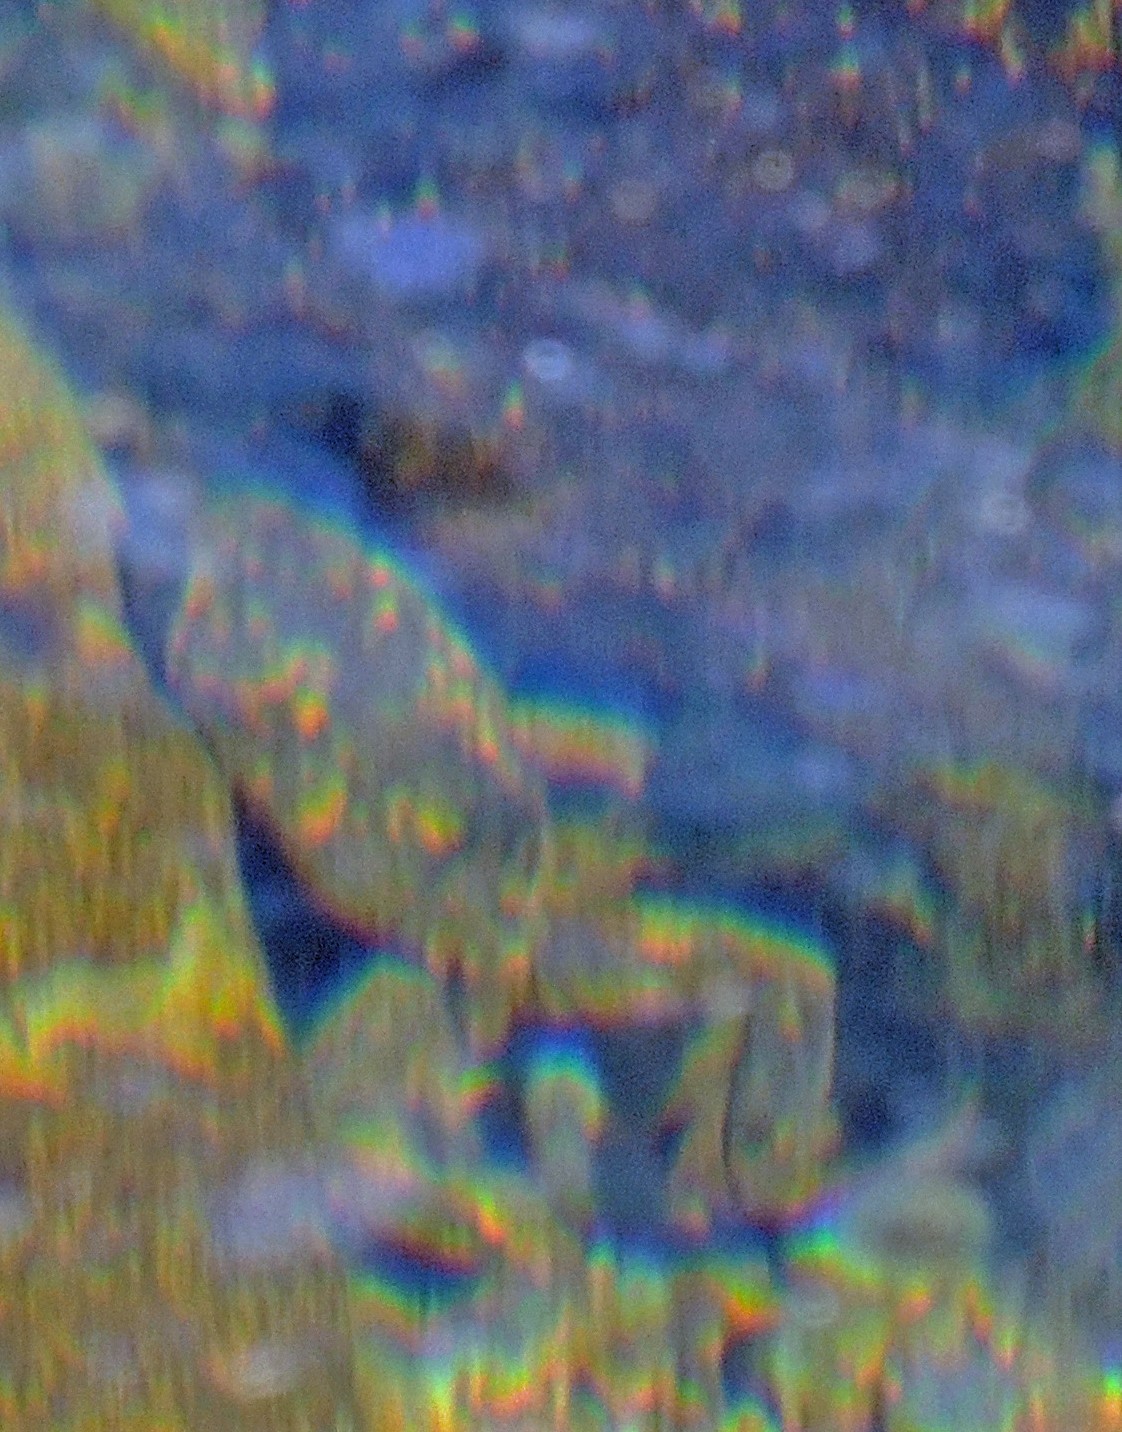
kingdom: Animalia
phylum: Chordata
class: Amphibia
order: Anura
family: Telmatobiidae
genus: Telmatobius
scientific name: Telmatobius rubigo
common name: Laguna de los pozuelos’ rusted frog
